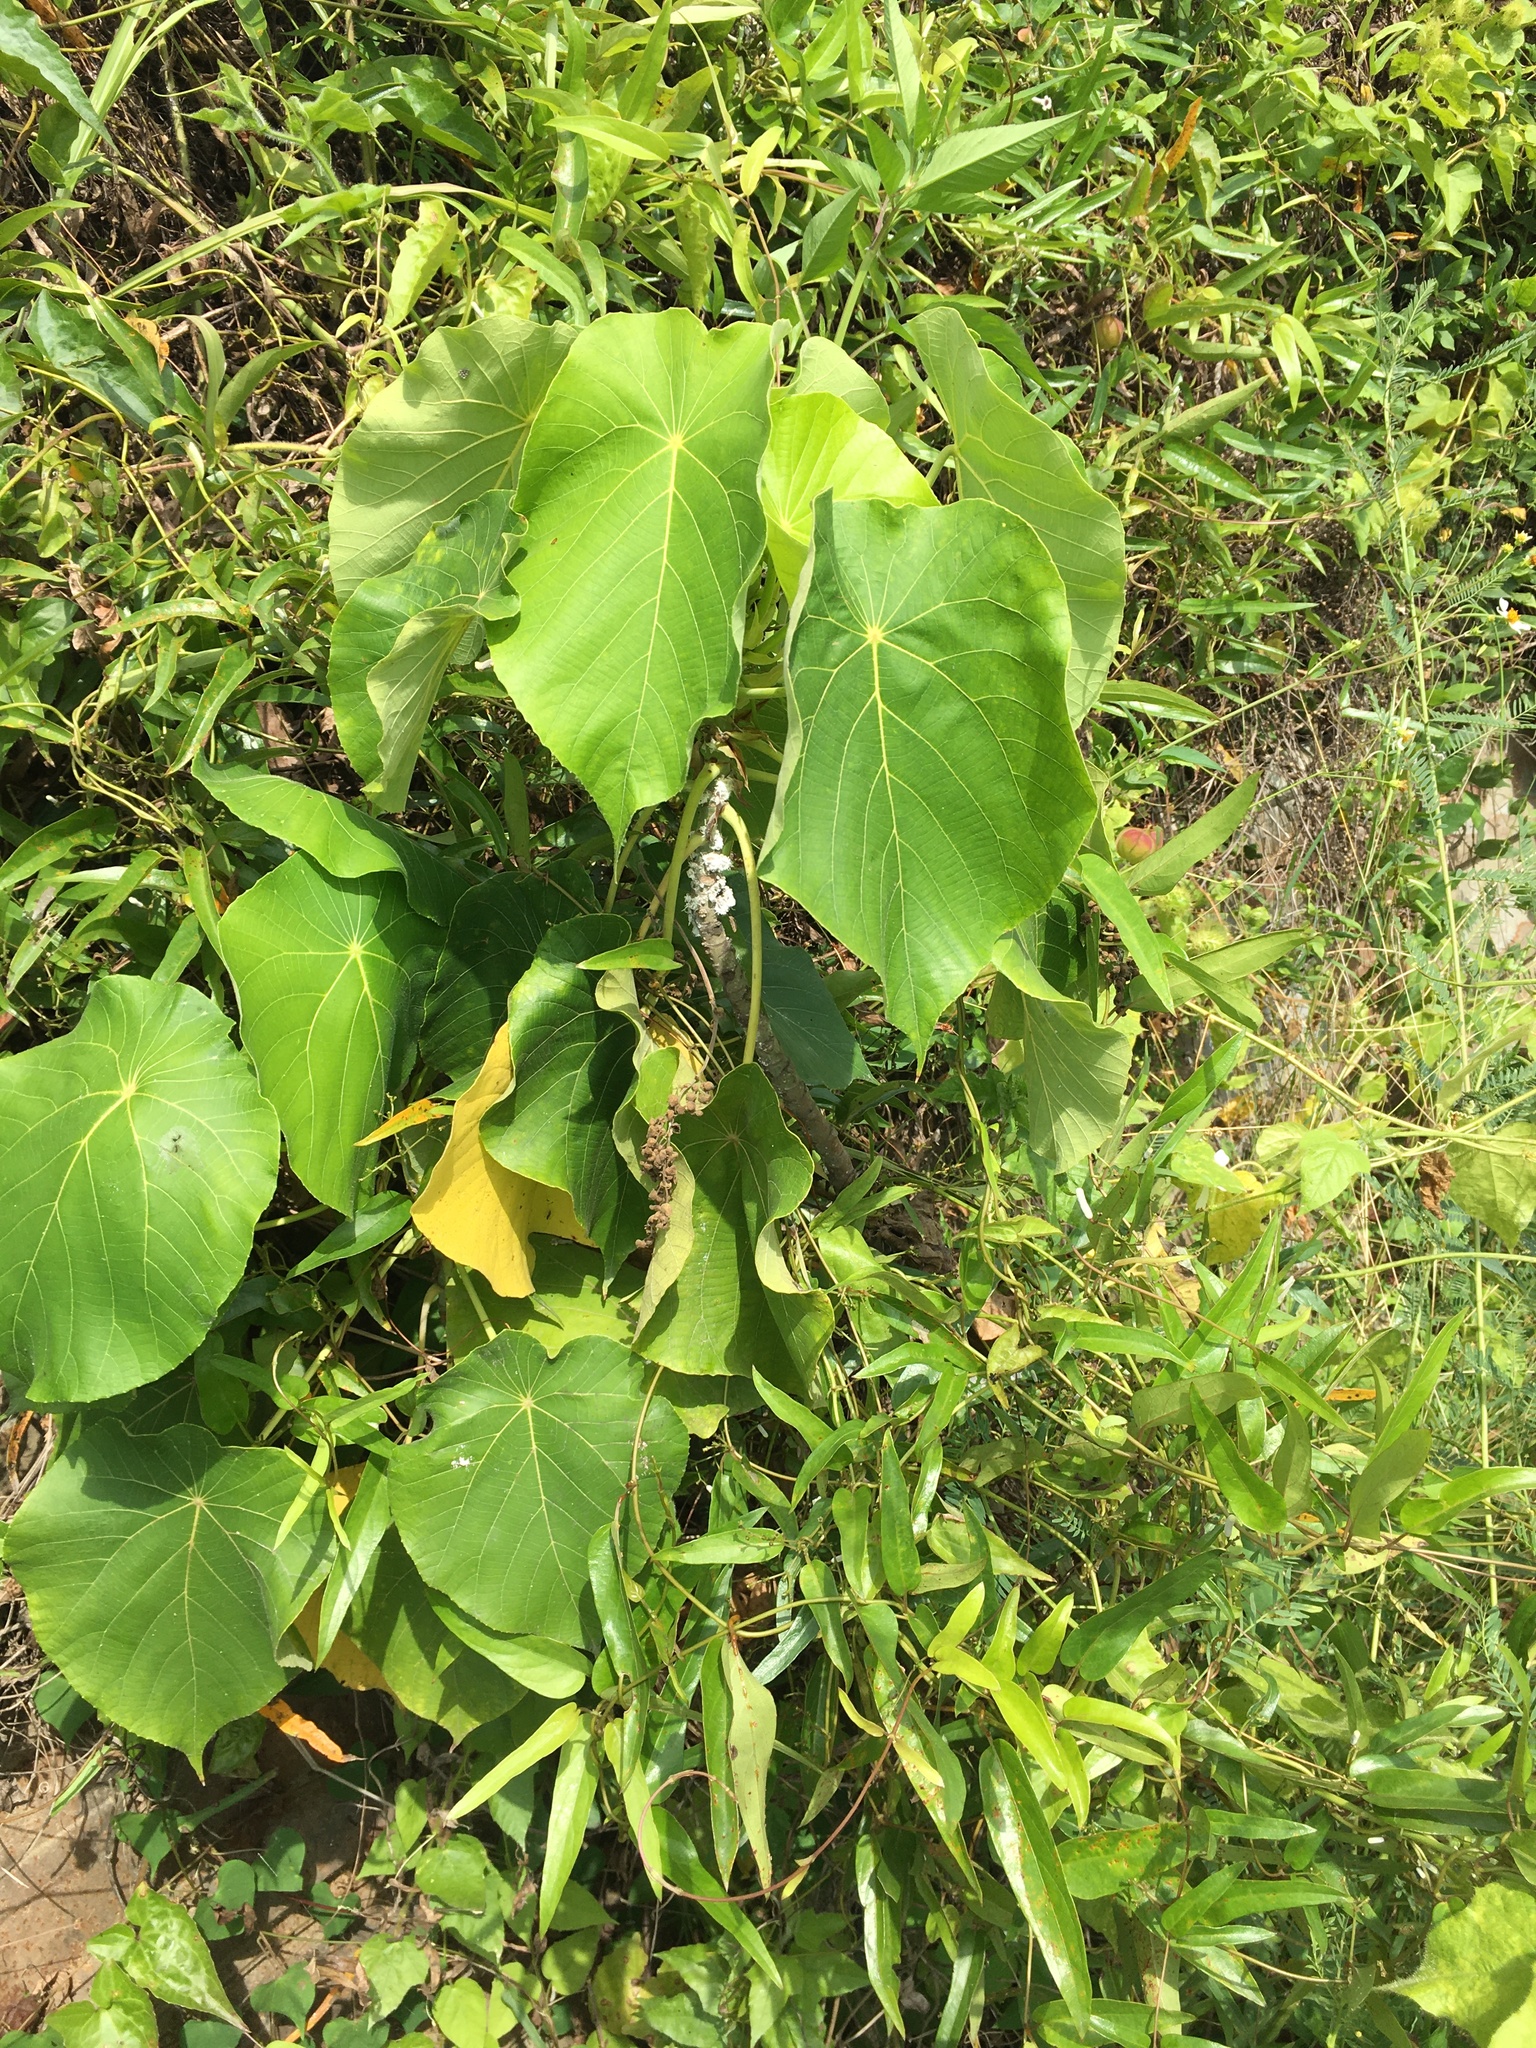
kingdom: Plantae
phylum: Tracheophyta
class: Magnoliopsida
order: Malpighiales
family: Euphorbiaceae
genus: Macaranga
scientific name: Macaranga tanarius
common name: Parasol leaf tree
